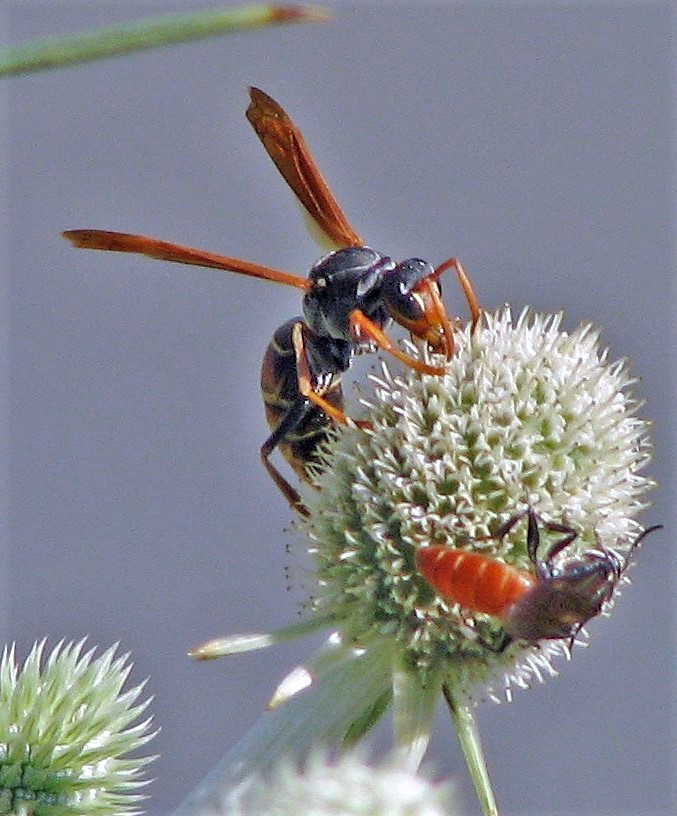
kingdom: Animalia
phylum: Arthropoda
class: Insecta
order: Hymenoptera
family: Eumenidae
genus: Polistes
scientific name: Polistes billardieri
